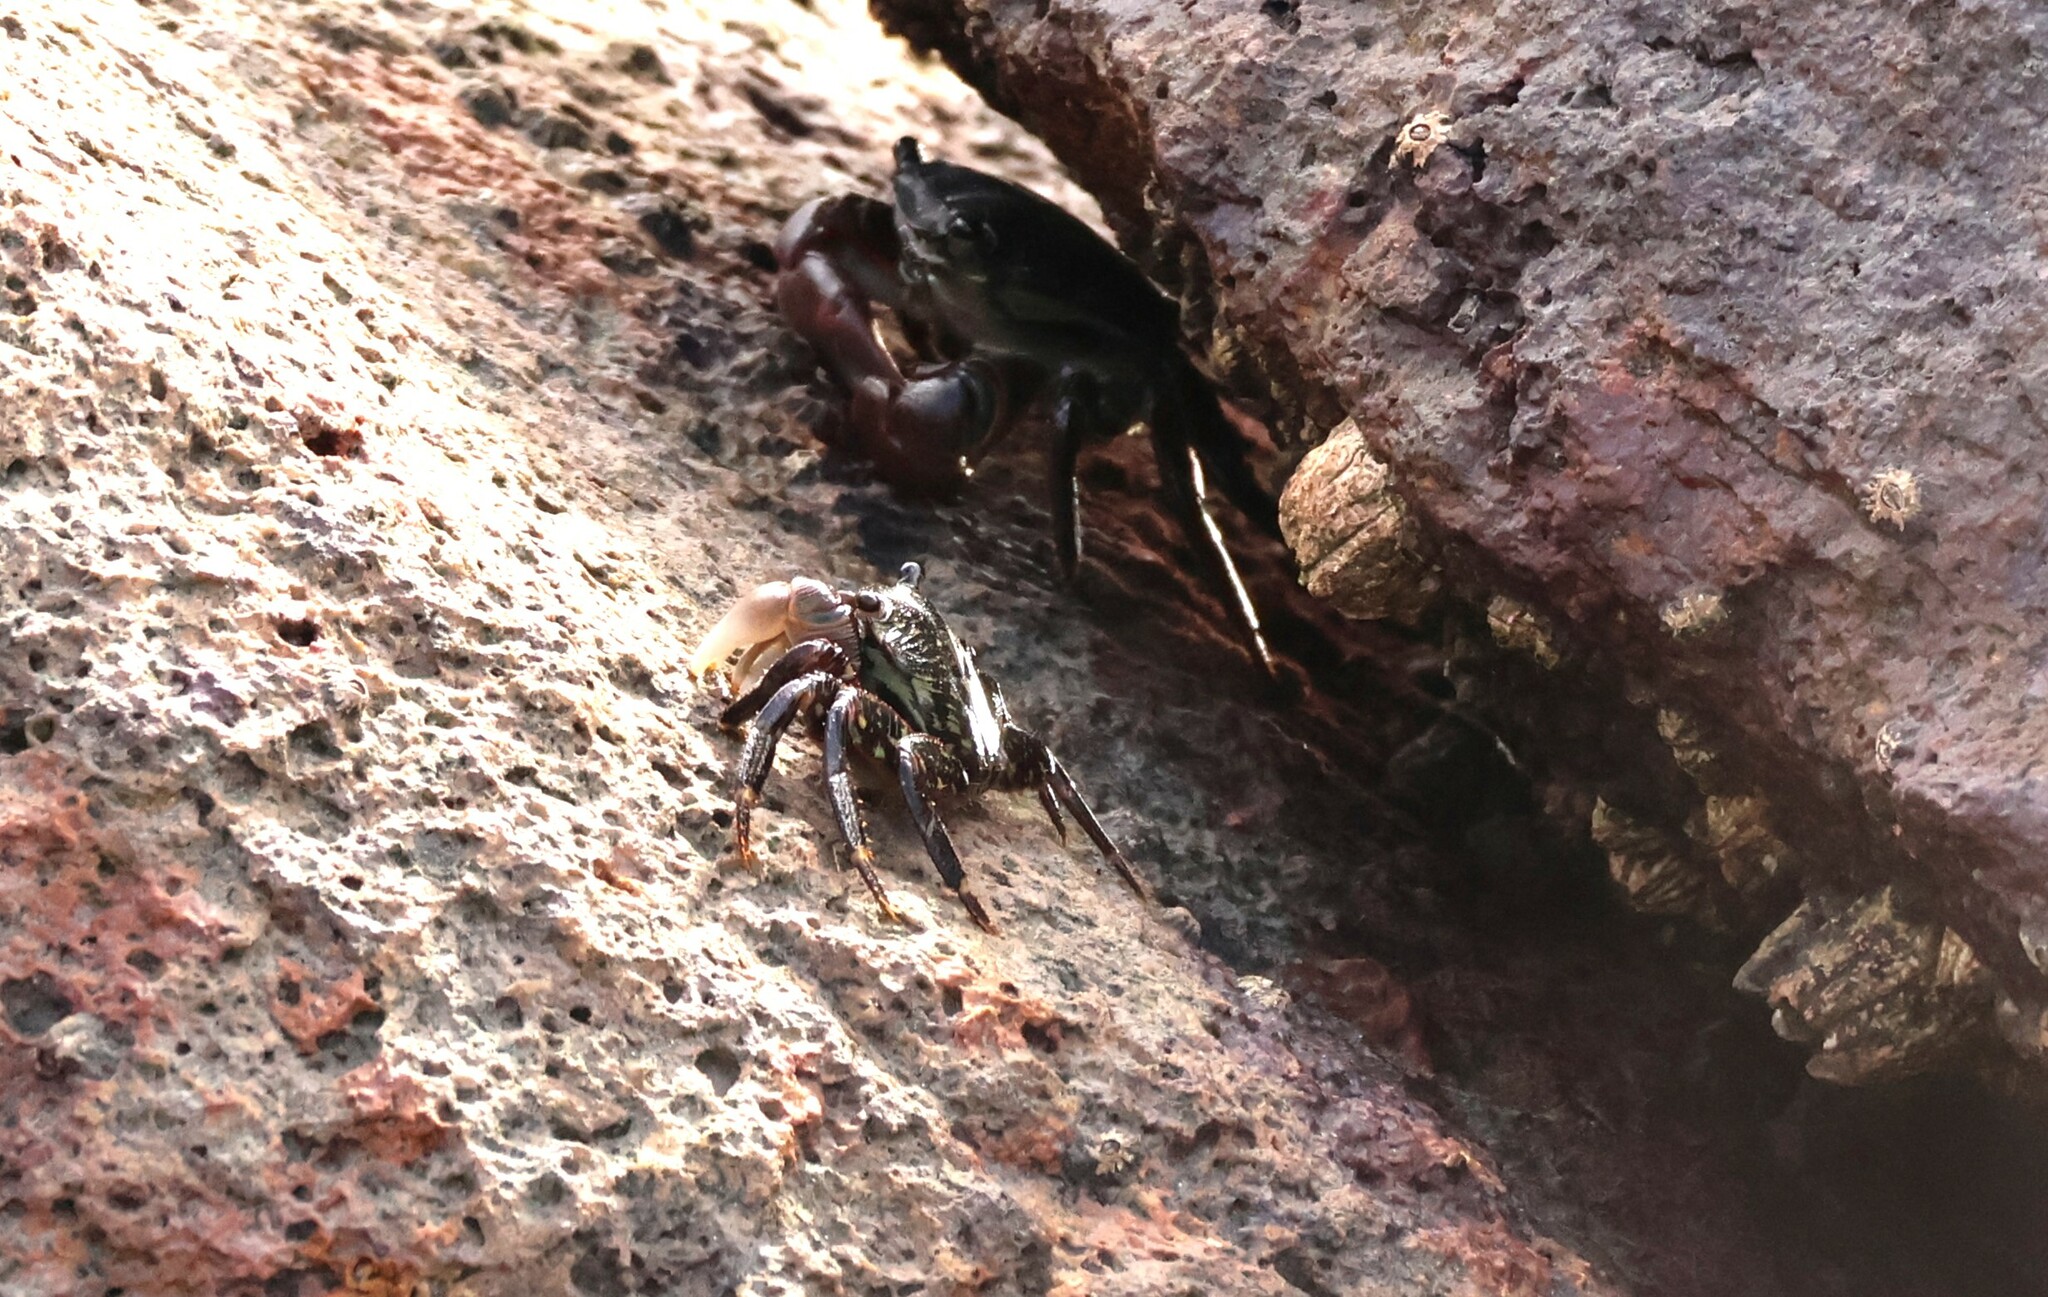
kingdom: Animalia
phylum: Arthropoda
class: Malacostraca
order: Decapoda
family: Grapsidae
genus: Pachygrapsus
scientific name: Pachygrapsus crassipes
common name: Striped shore crab
